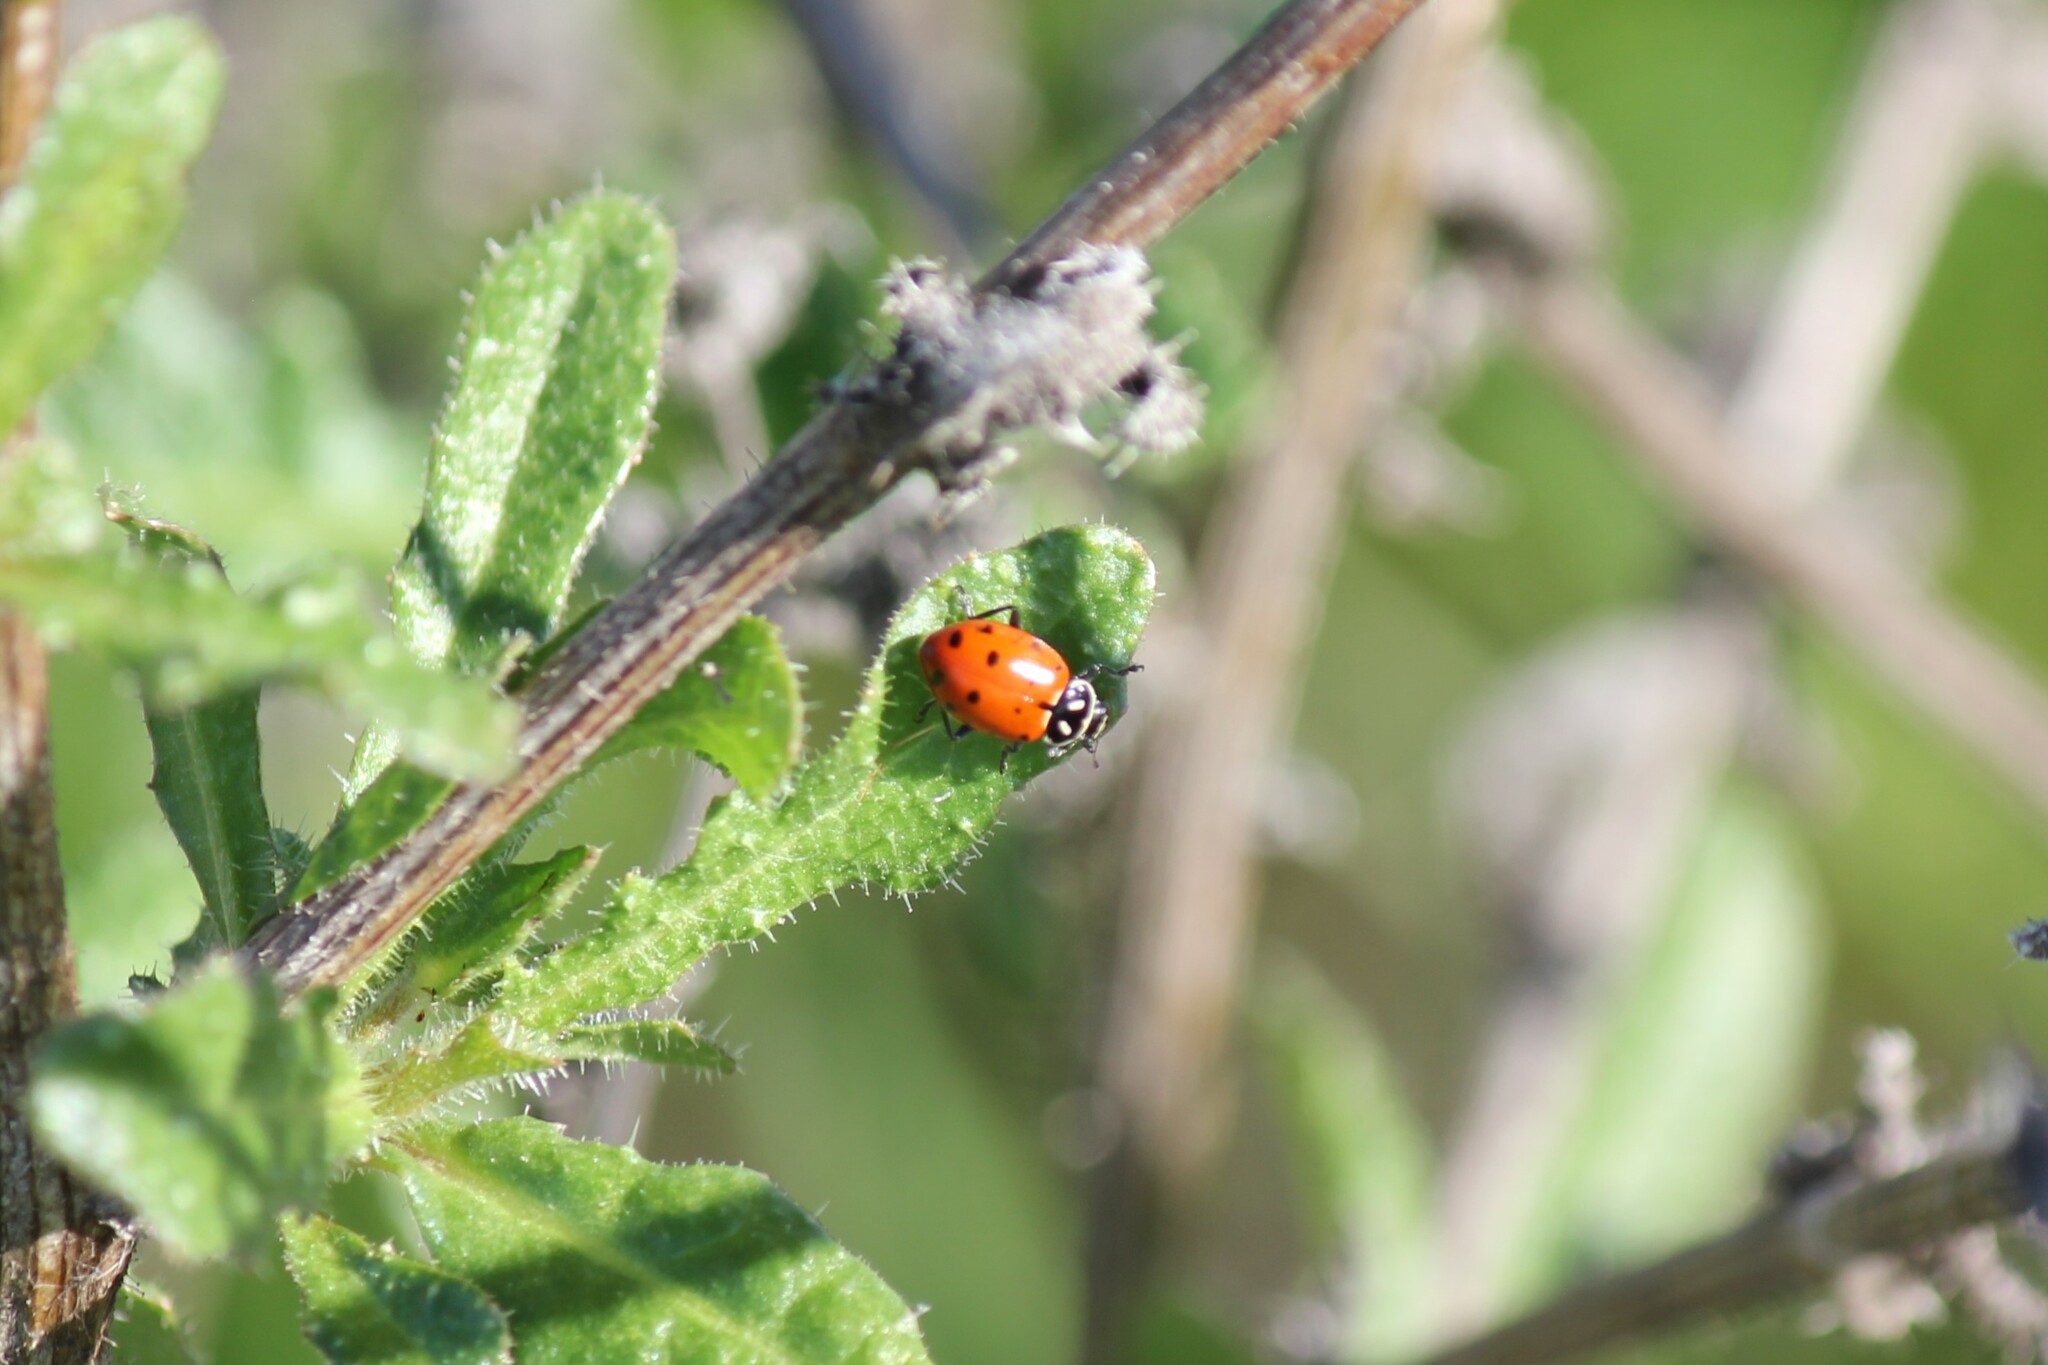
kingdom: Animalia
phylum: Arthropoda
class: Insecta
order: Coleoptera
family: Coccinellidae
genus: Hippodamia
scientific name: Hippodamia convergens
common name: Convergent lady beetle
